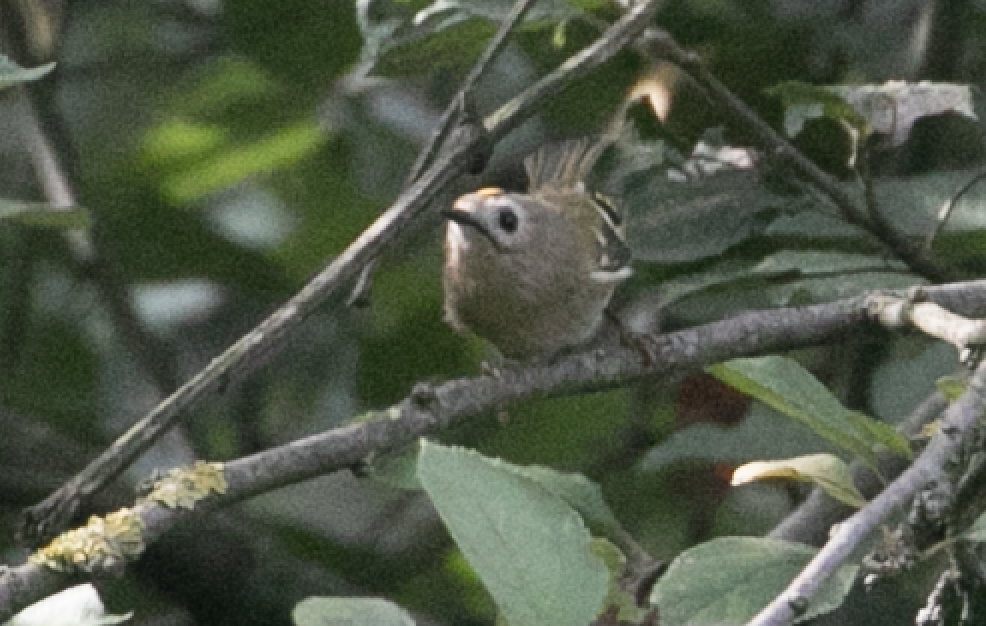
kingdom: Animalia
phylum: Chordata
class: Aves
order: Passeriformes
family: Regulidae
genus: Regulus
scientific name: Regulus regulus
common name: Goldcrest
